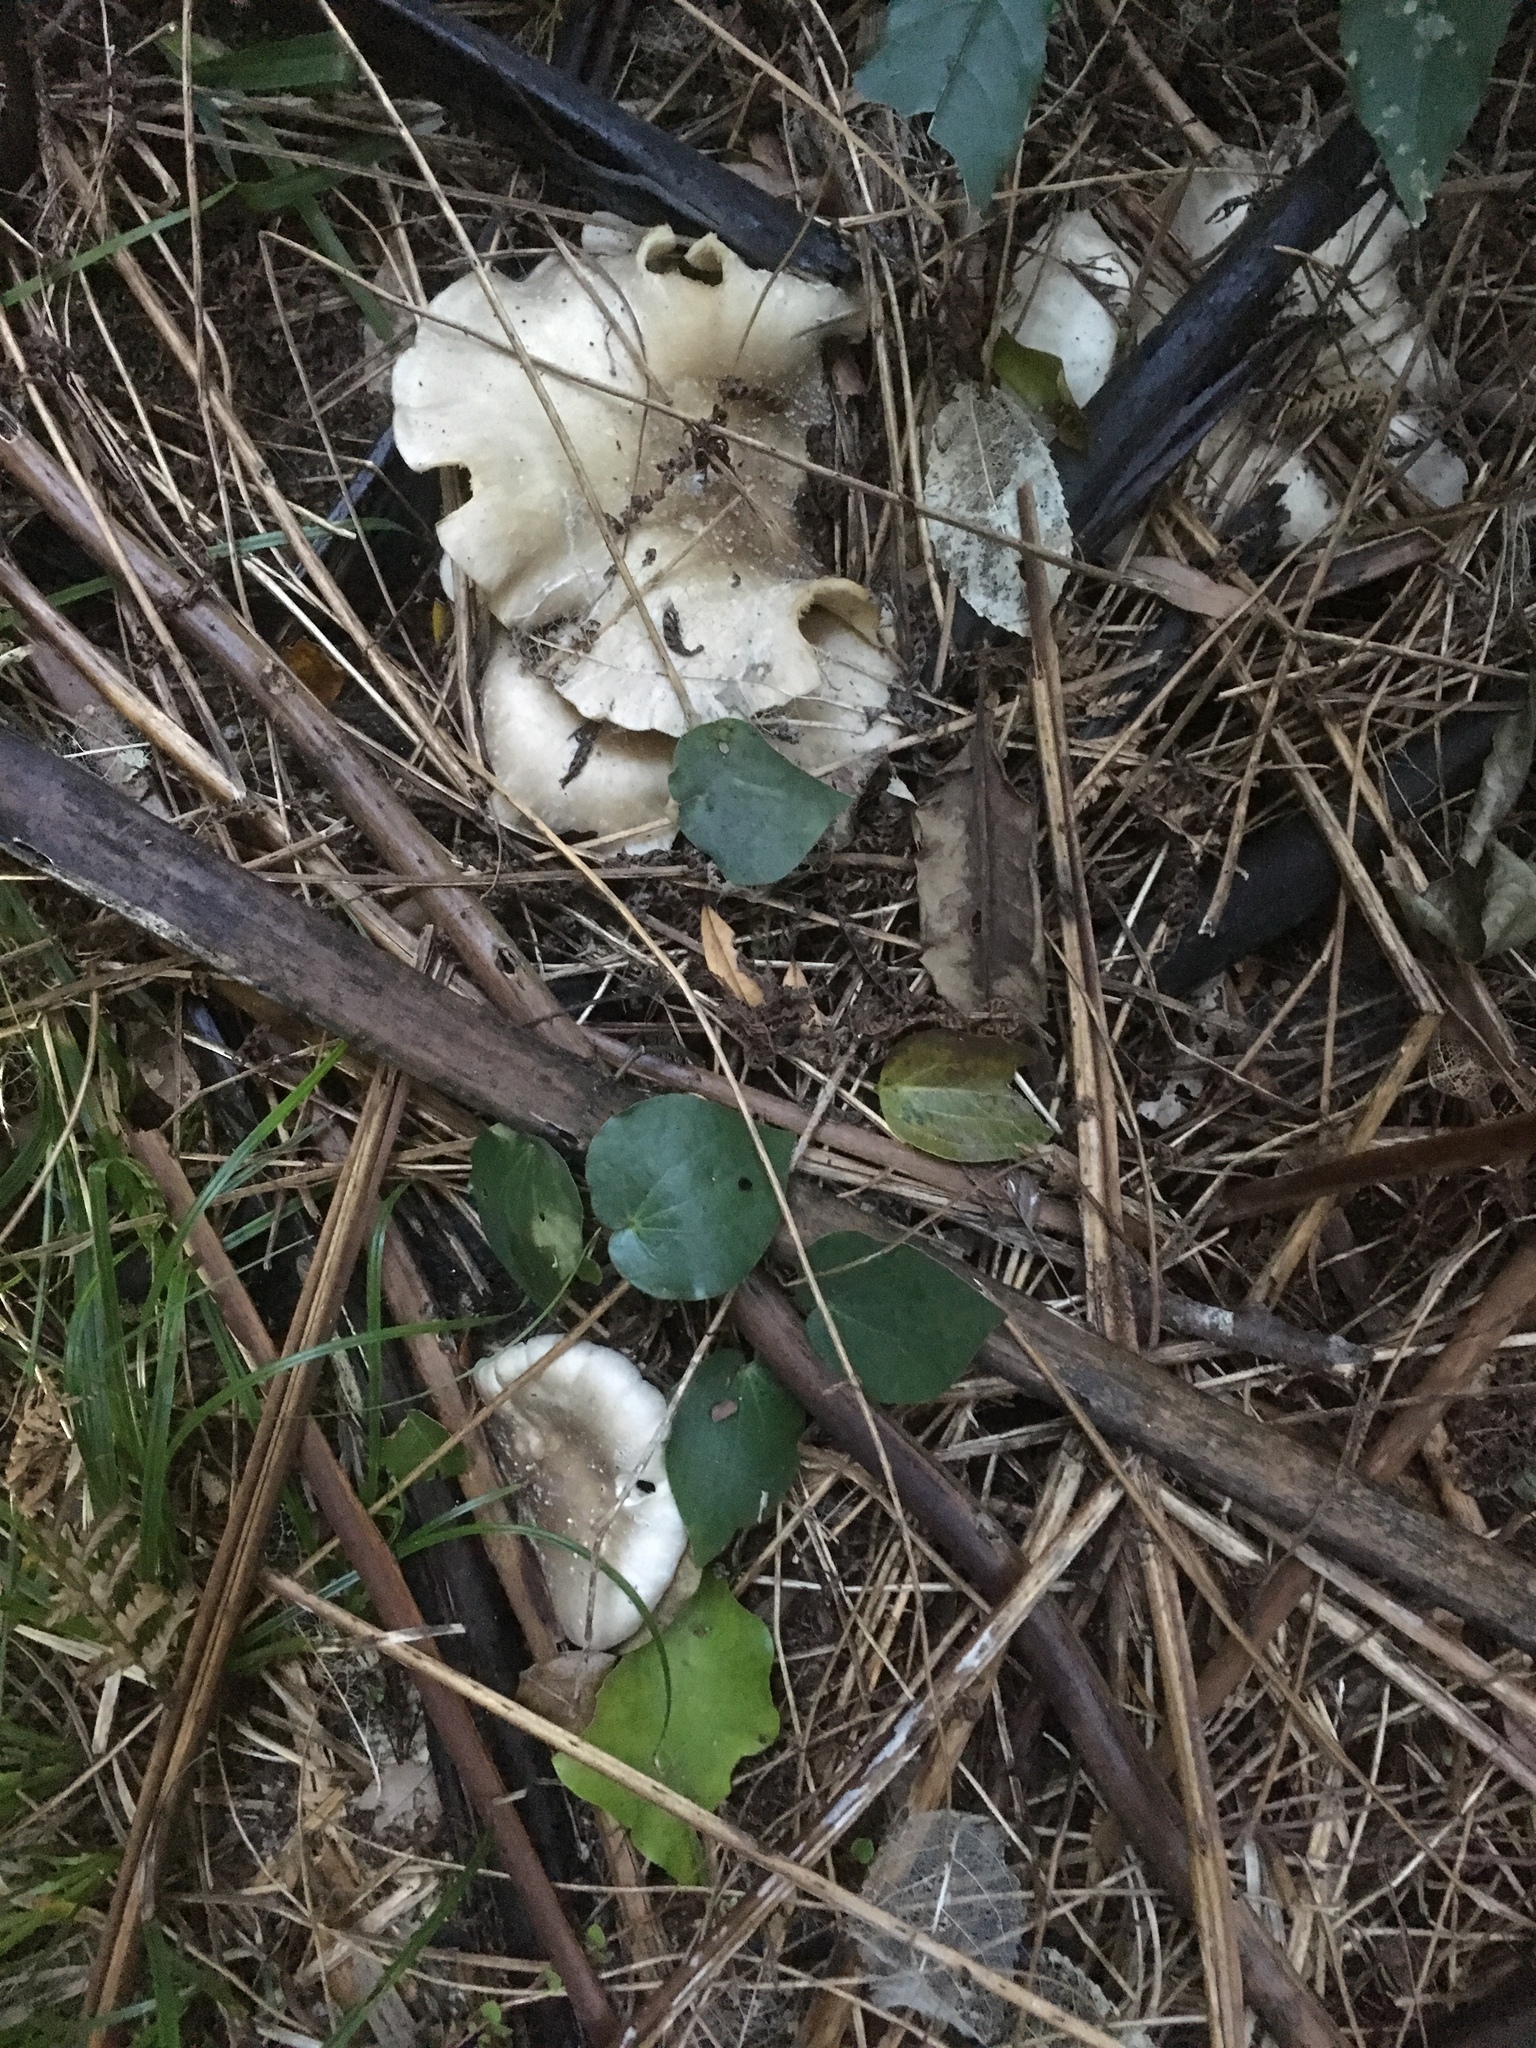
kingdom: Fungi
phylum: Basidiomycota
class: Agaricomycetes
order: Agaricales
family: Tricholomataceae
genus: Clitocybe
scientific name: Clitocybe nebularis
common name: Clouded agaric
